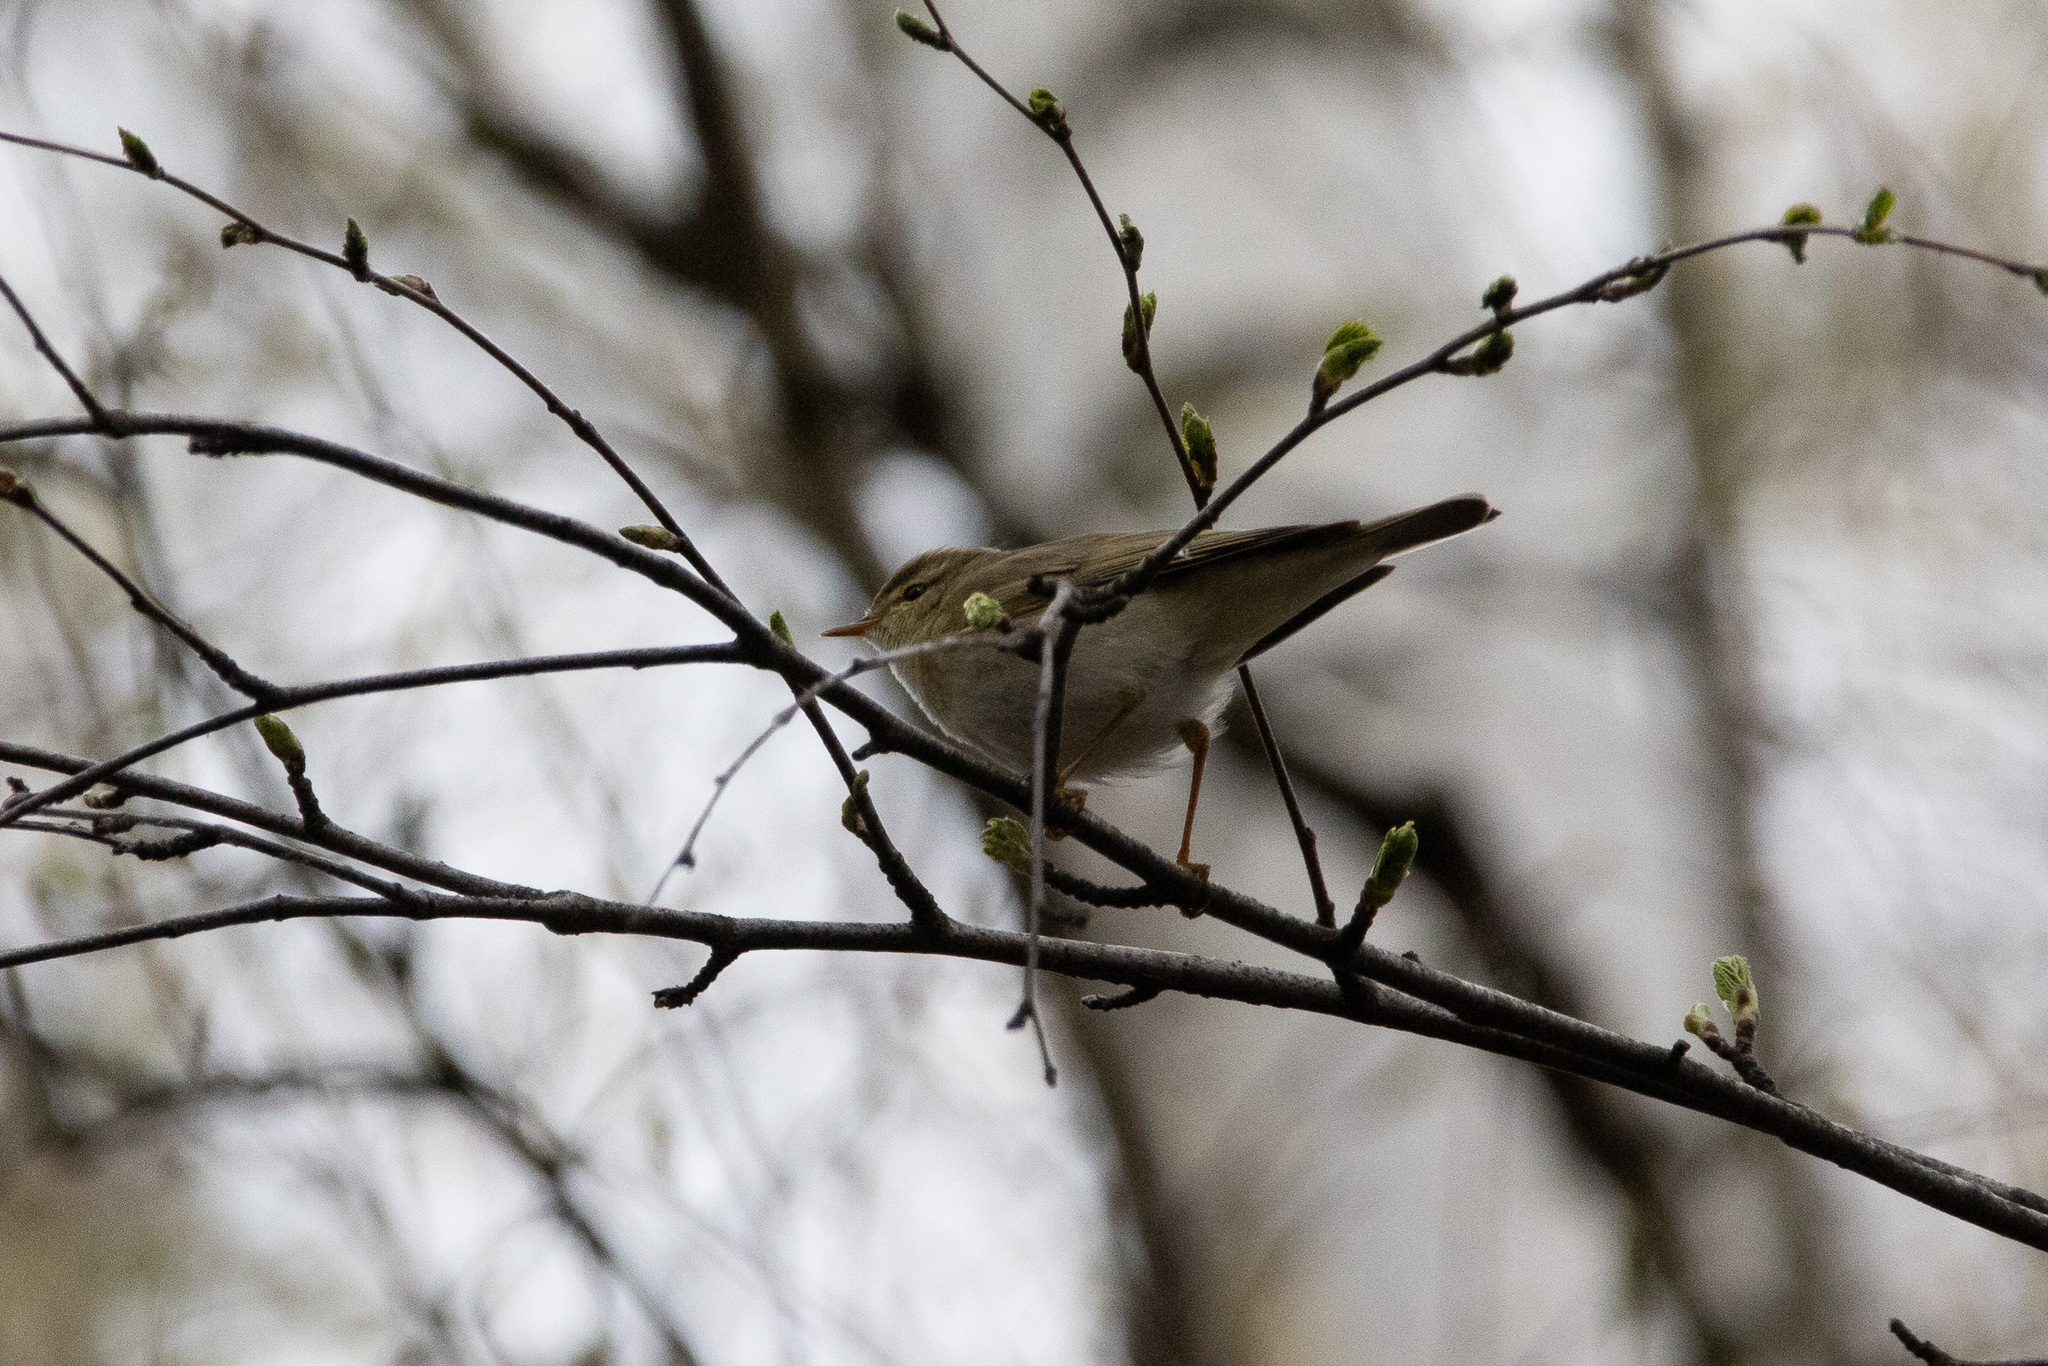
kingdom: Animalia
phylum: Chordata
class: Aves
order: Passeriformes
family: Phylloscopidae
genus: Phylloscopus
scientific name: Phylloscopus trochilus
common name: Willow warbler
